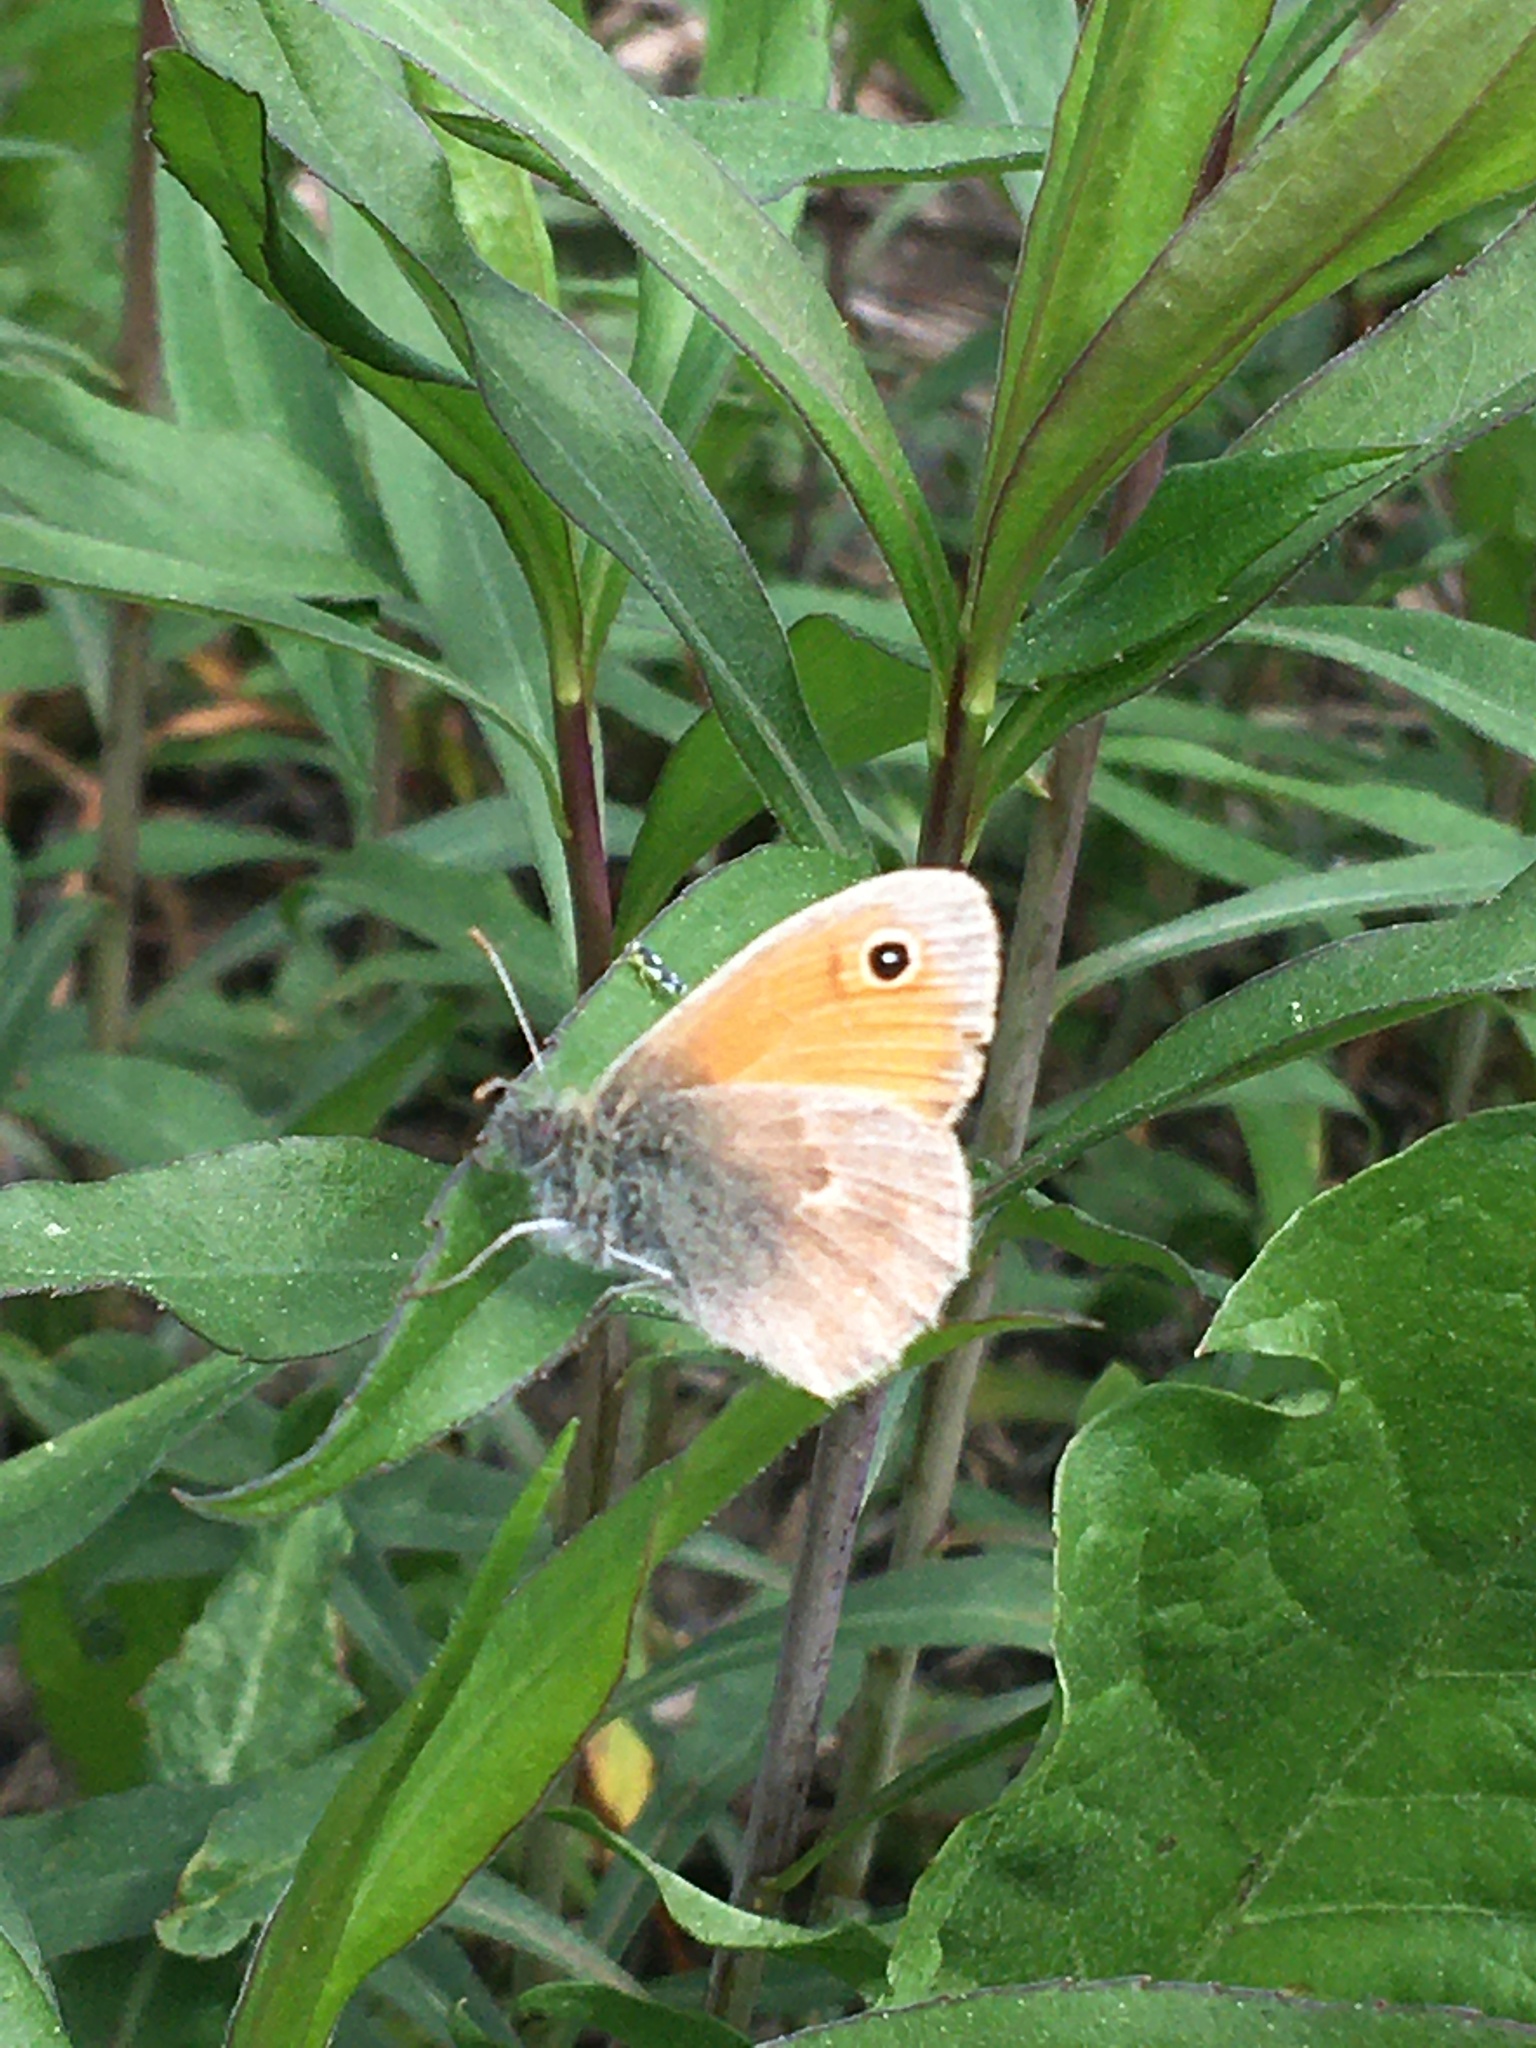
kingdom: Animalia
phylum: Arthropoda
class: Insecta
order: Lepidoptera
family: Nymphalidae
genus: Coenonympha
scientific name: Coenonympha pamphilus
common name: Small heath
